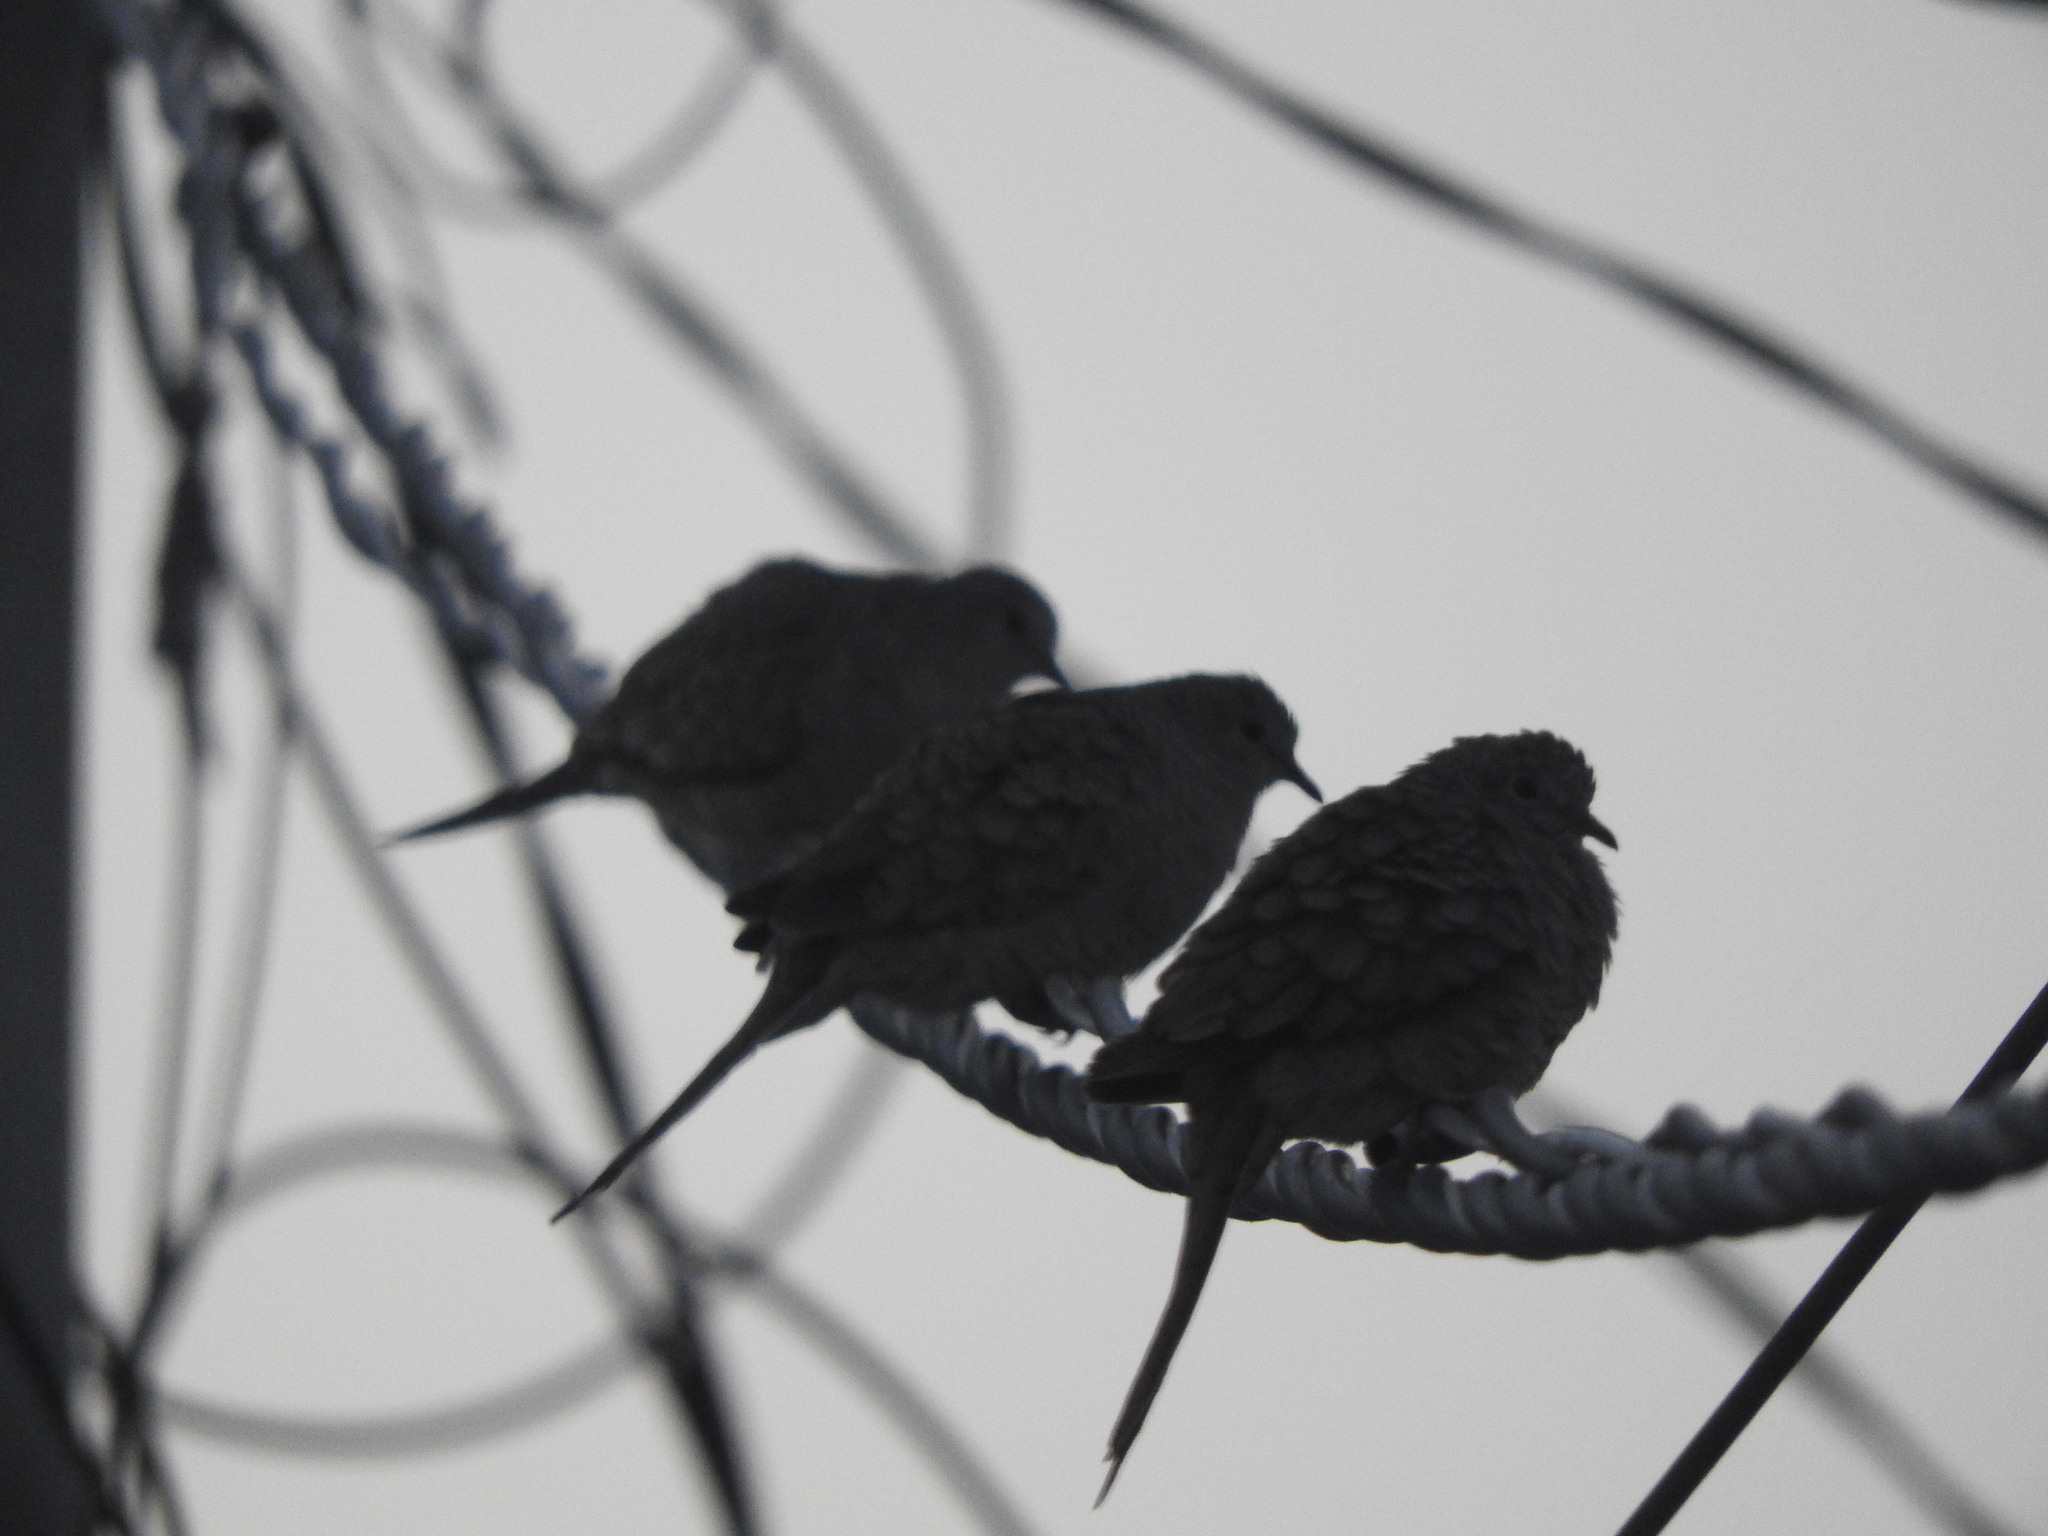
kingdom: Animalia
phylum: Chordata
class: Aves
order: Columbiformes
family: Columbidae
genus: Columbina
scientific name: Columbina inca
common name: Inca dove
